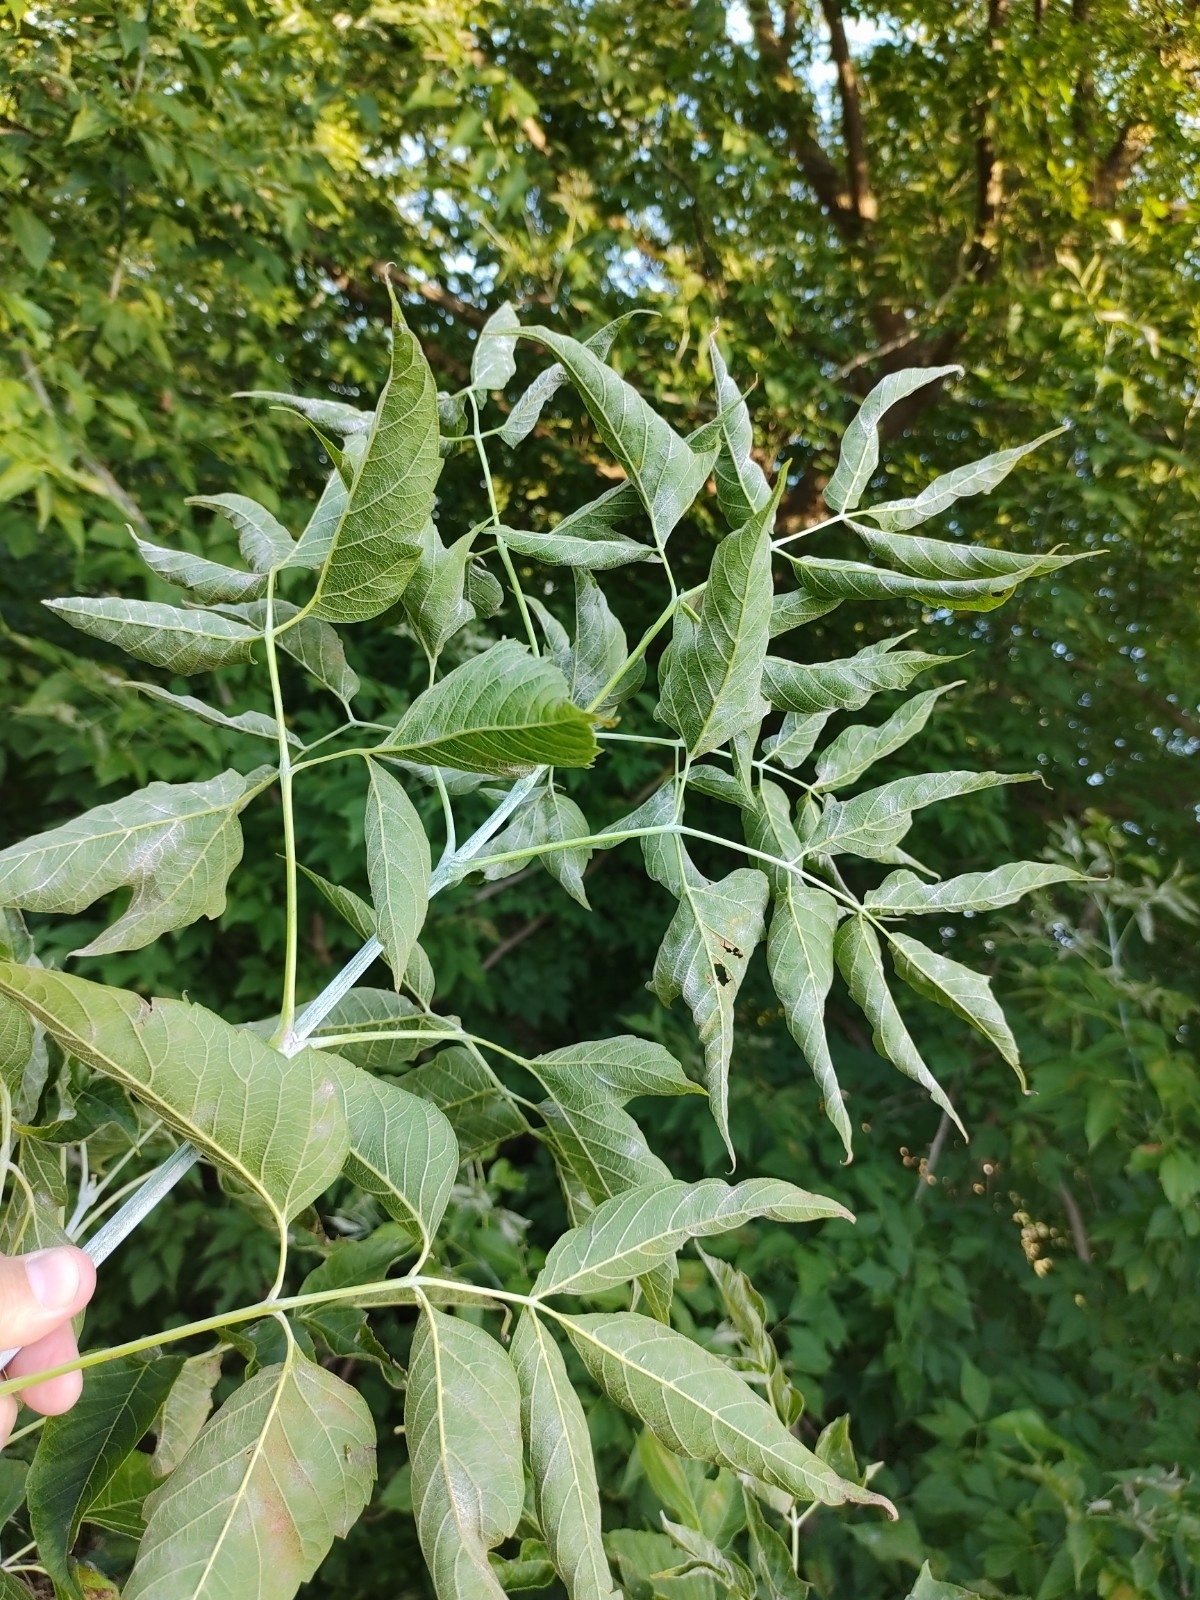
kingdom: Plantae
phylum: Tracheophyta
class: Magnoliopsida
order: Sapindales
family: Sapindaceae
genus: Acer
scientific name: Acer negundo
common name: Ashleaf maple
